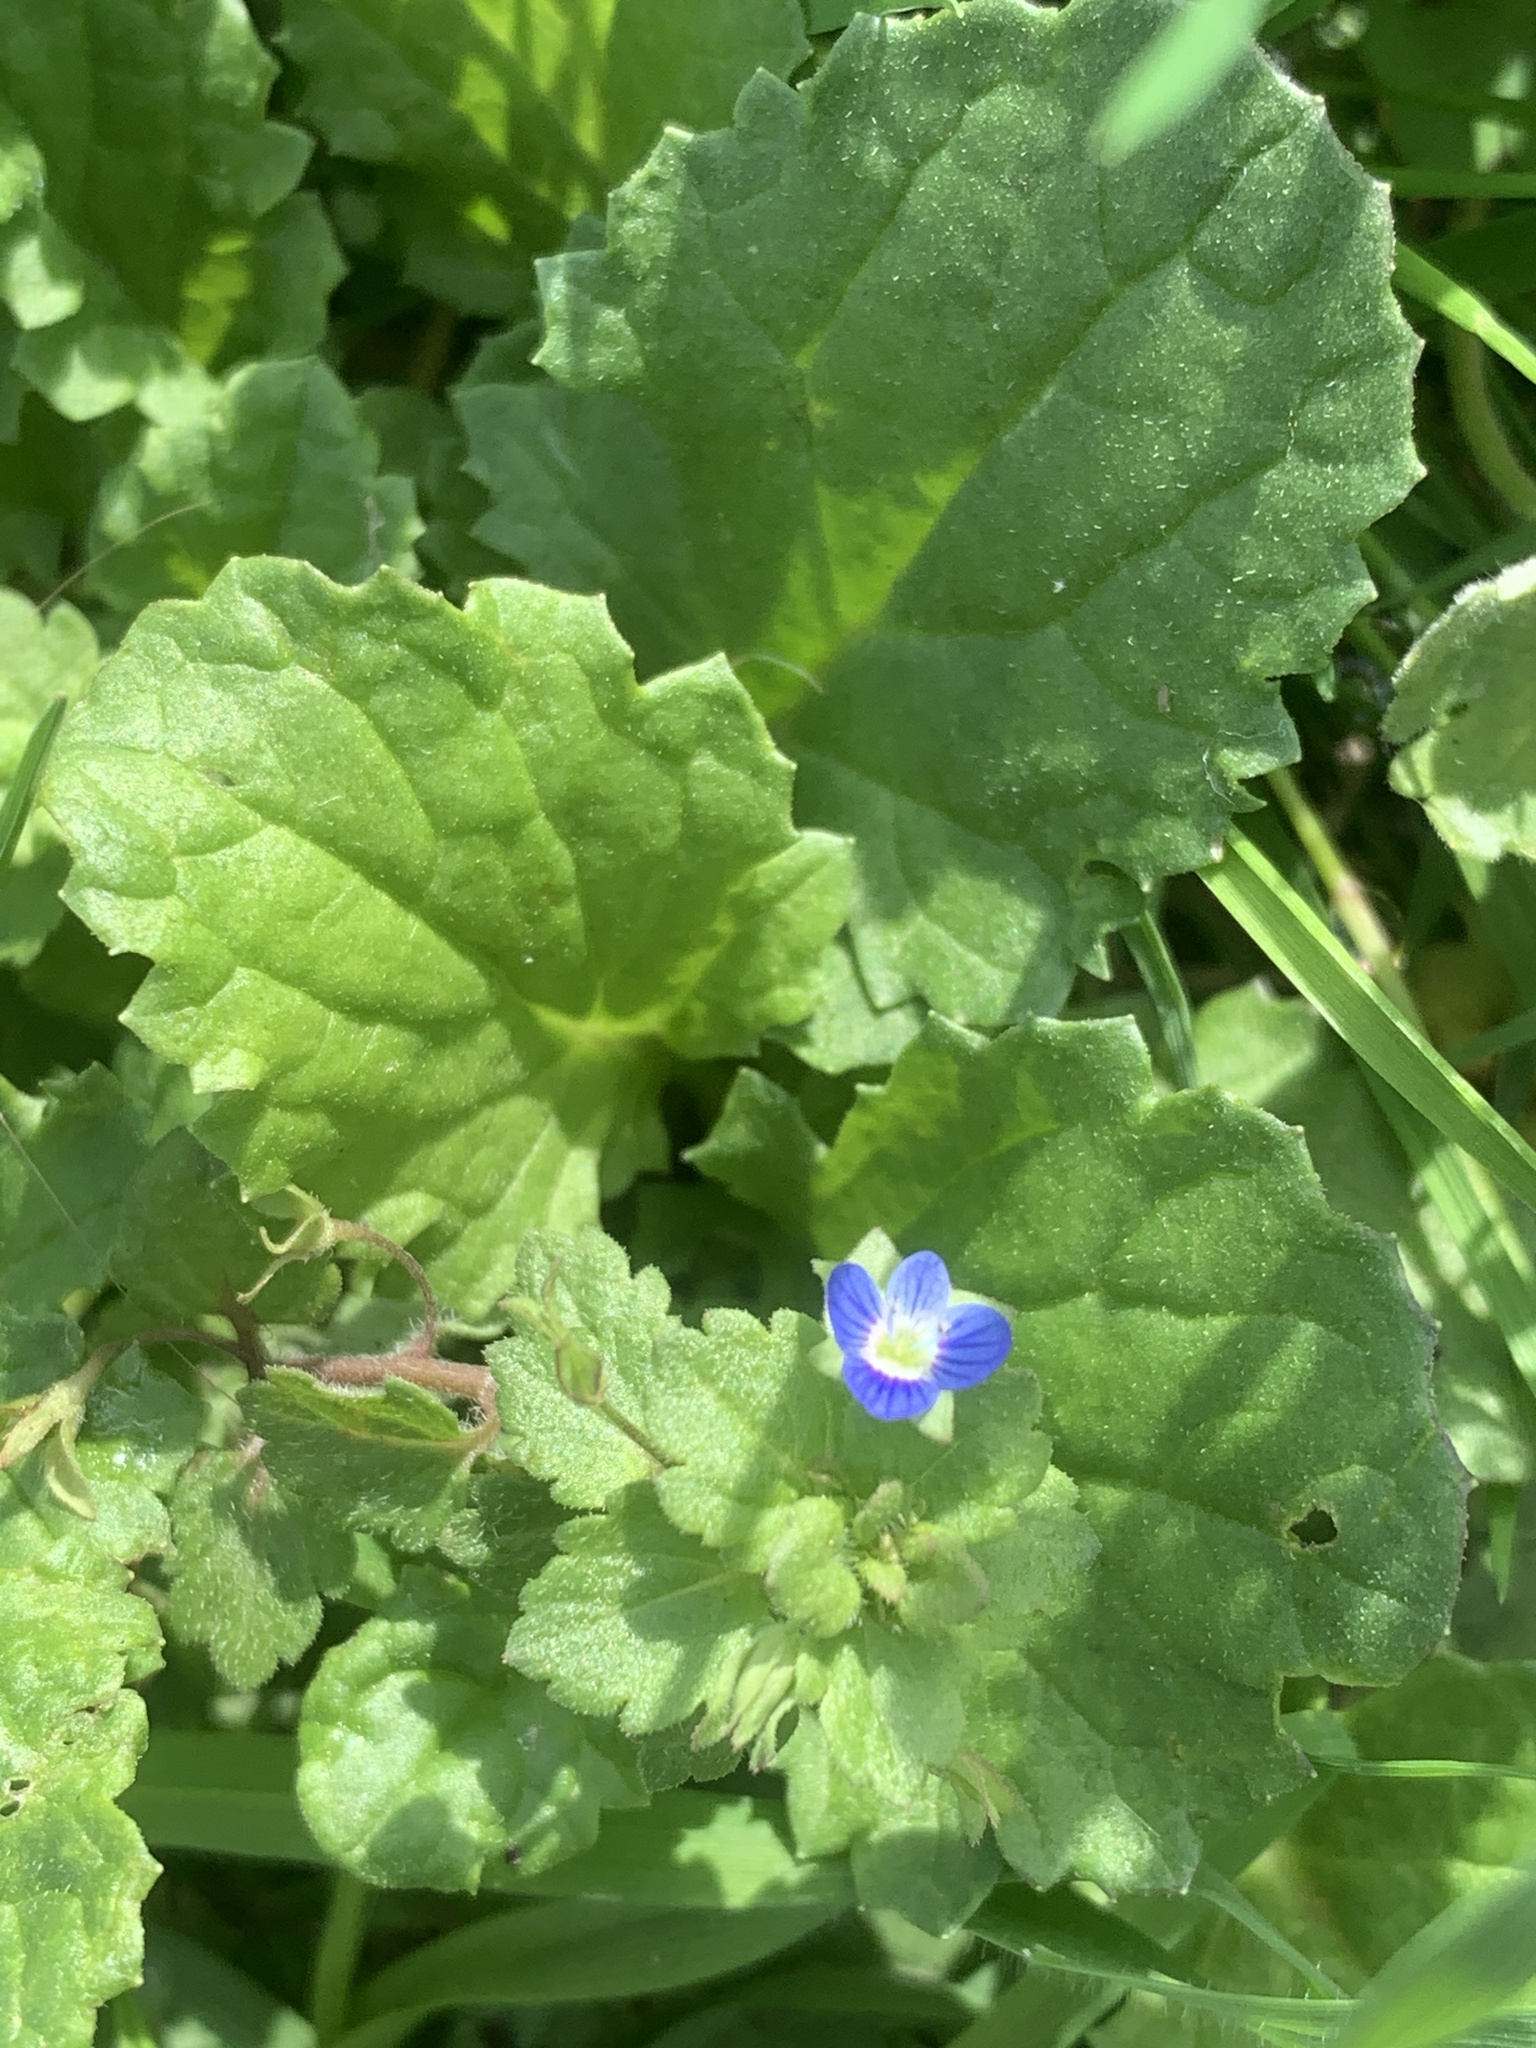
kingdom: Plantae
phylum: Tracheophyta
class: Magnoliopsida
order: Lamiales
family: Plantaginaceae
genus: Veronica
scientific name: Veronica persica
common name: Common field-speedwell
